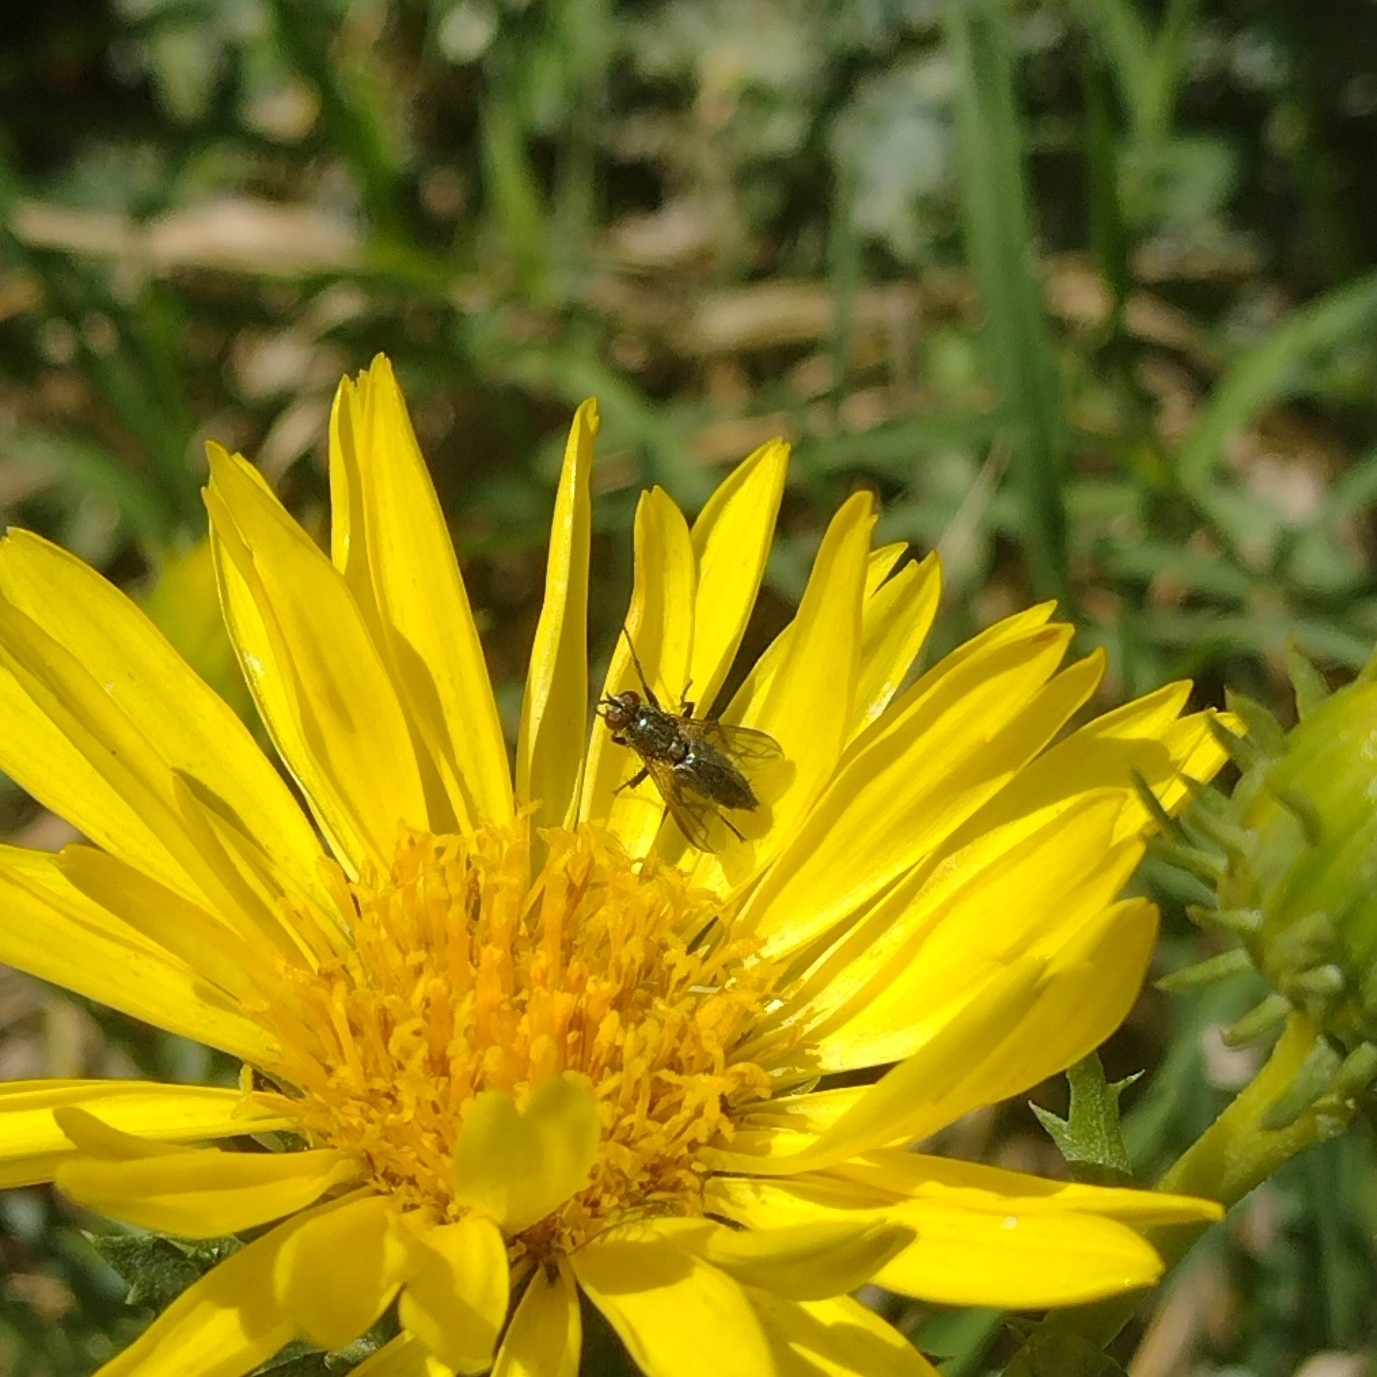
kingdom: Animalia
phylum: Arthropoda
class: Insecta
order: Diptera
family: Calliphoridae
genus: Stevenia
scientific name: Stevenia deceptoria
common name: Grizzled woodlouse-fly
